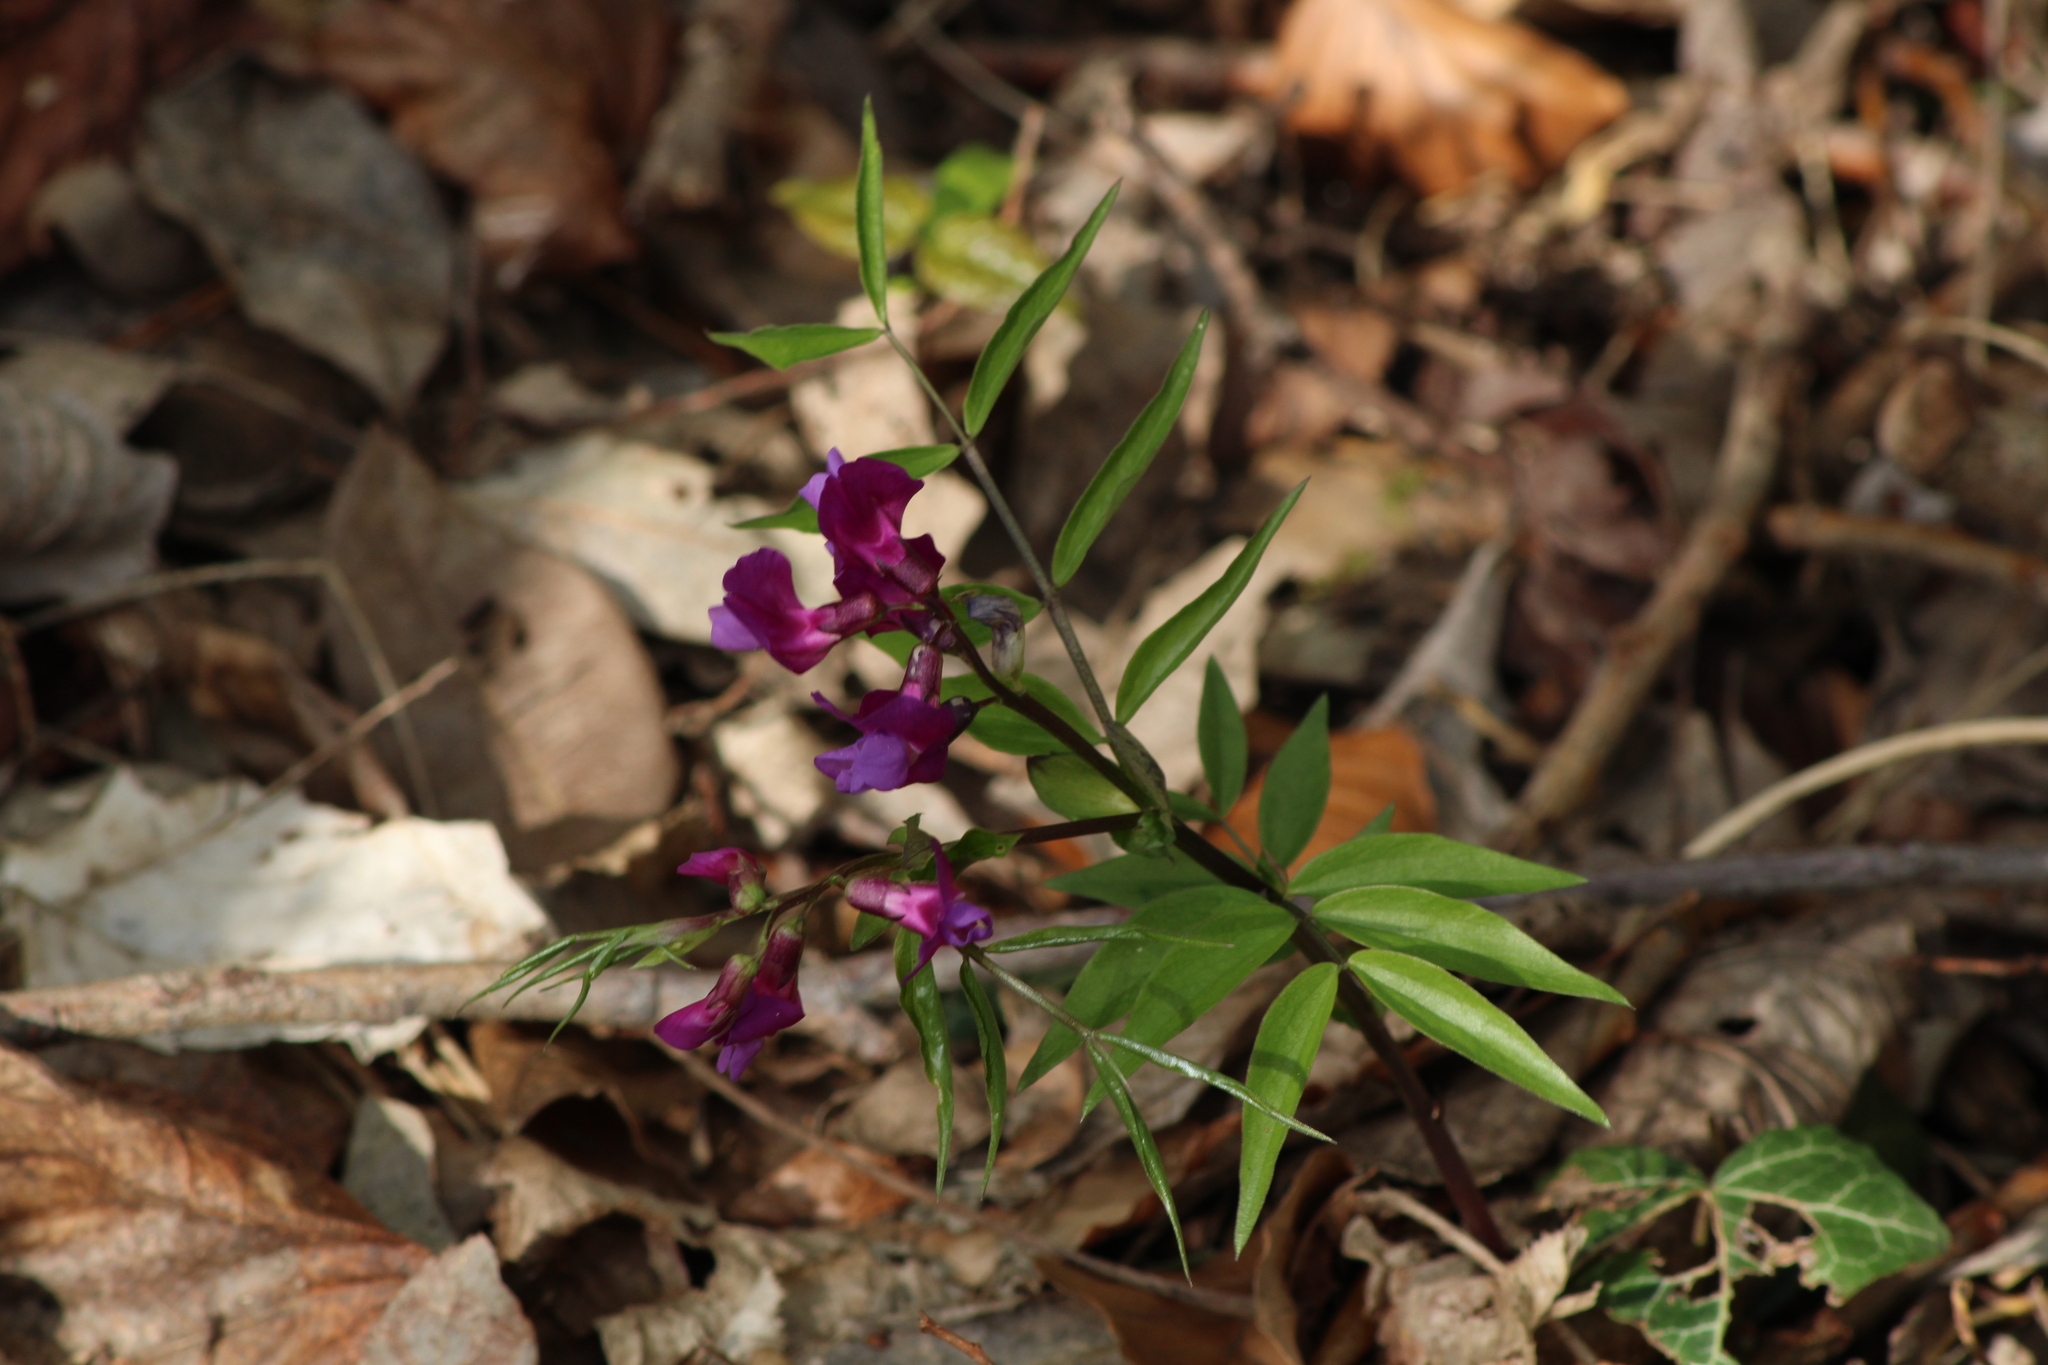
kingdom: Plantae
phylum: Tracheophyta
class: Magnoliopsida
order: Fabales
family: Fabaceae
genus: Lathyrus
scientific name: Lathyrus vernus
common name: Spring pea
